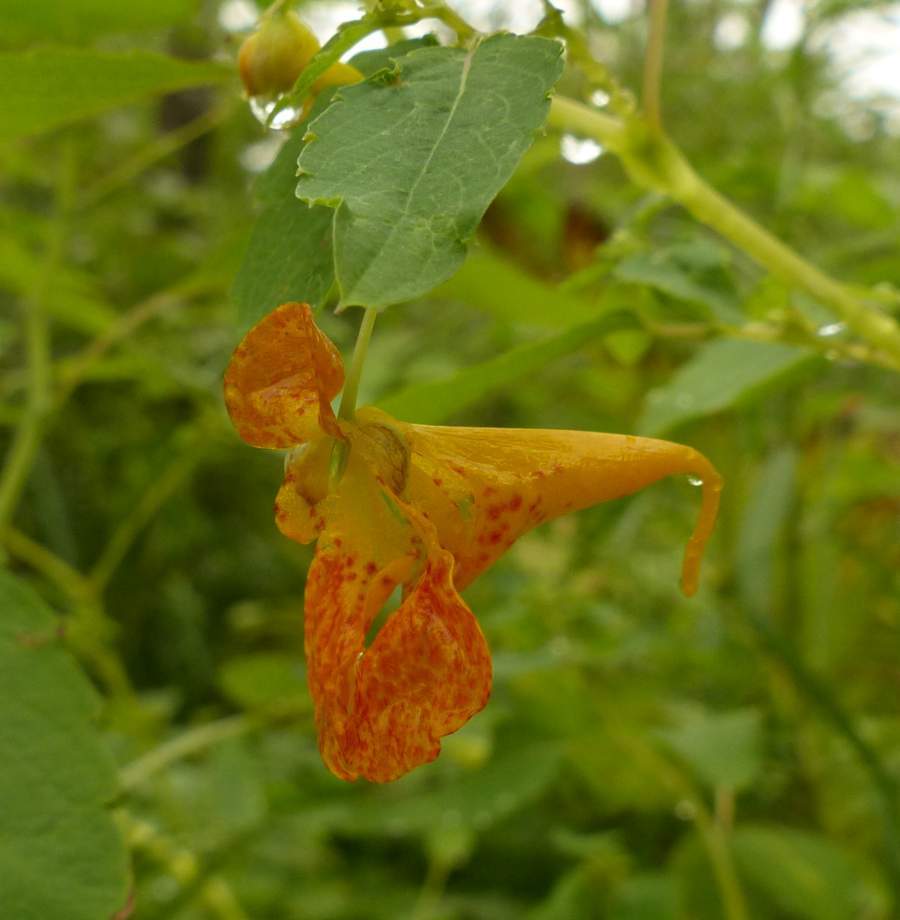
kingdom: Plantae
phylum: Tracheophyta
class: Magnoliopsida
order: Ericales
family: Balsaminaceae
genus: Impatiens
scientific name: Impatiens capensis
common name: Orange balsam
